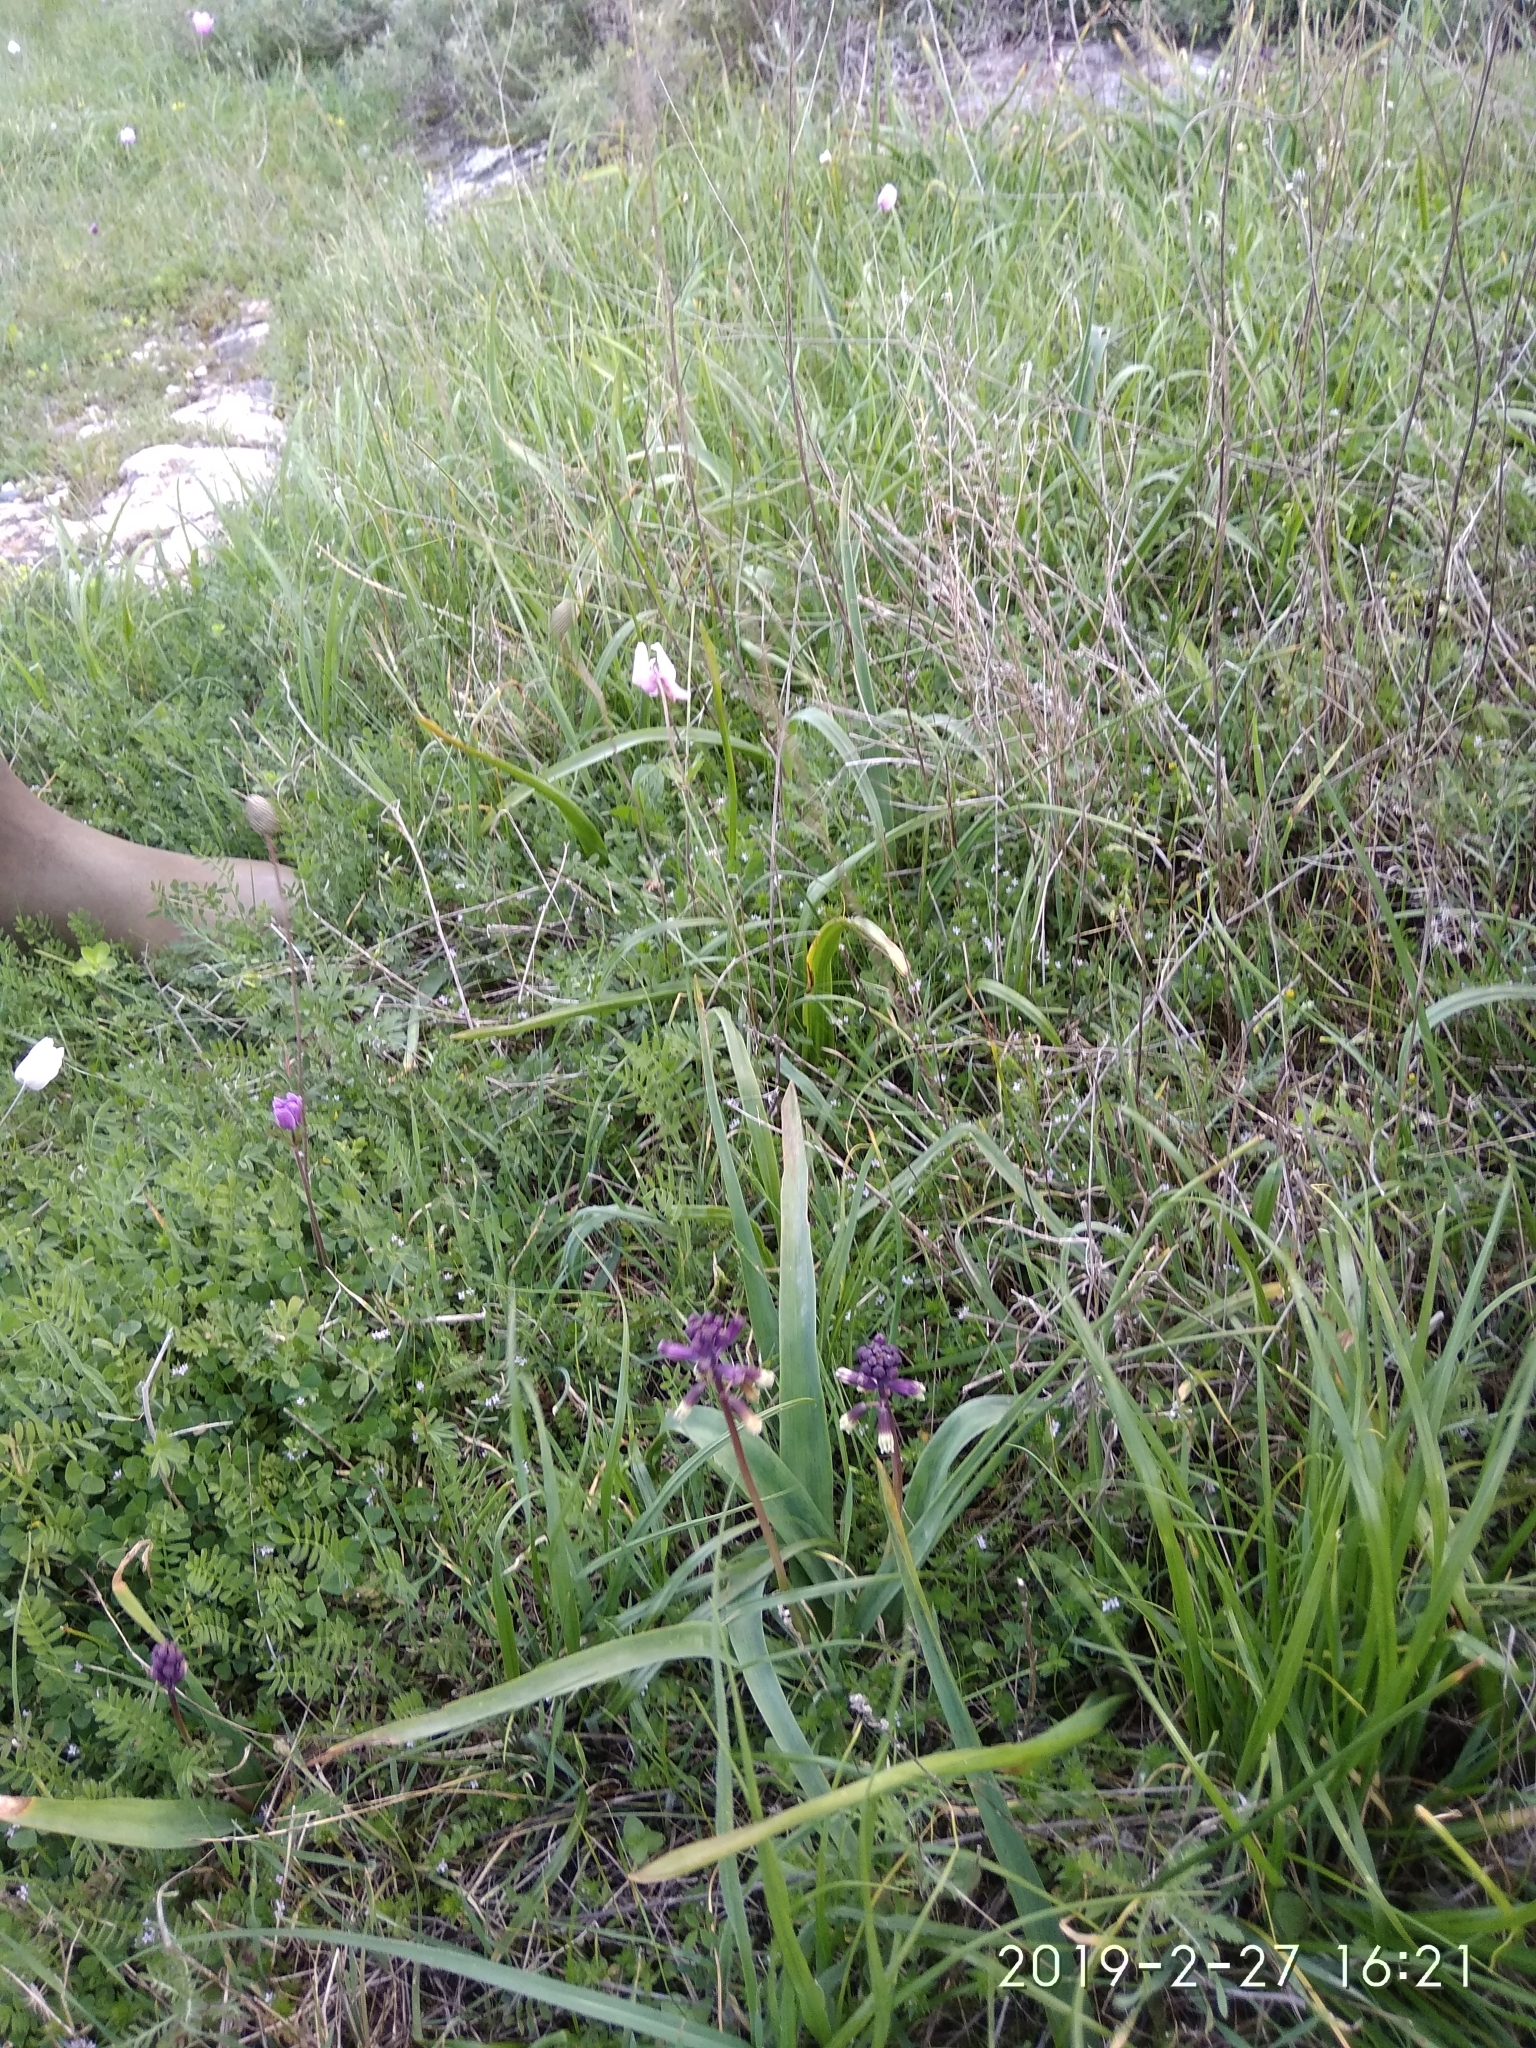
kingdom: Plantae
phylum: Tracheophyta
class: Liliopsida
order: Asparagales
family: Asparagaceae
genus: Bellevalia
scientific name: Bellevalia trifoliata
